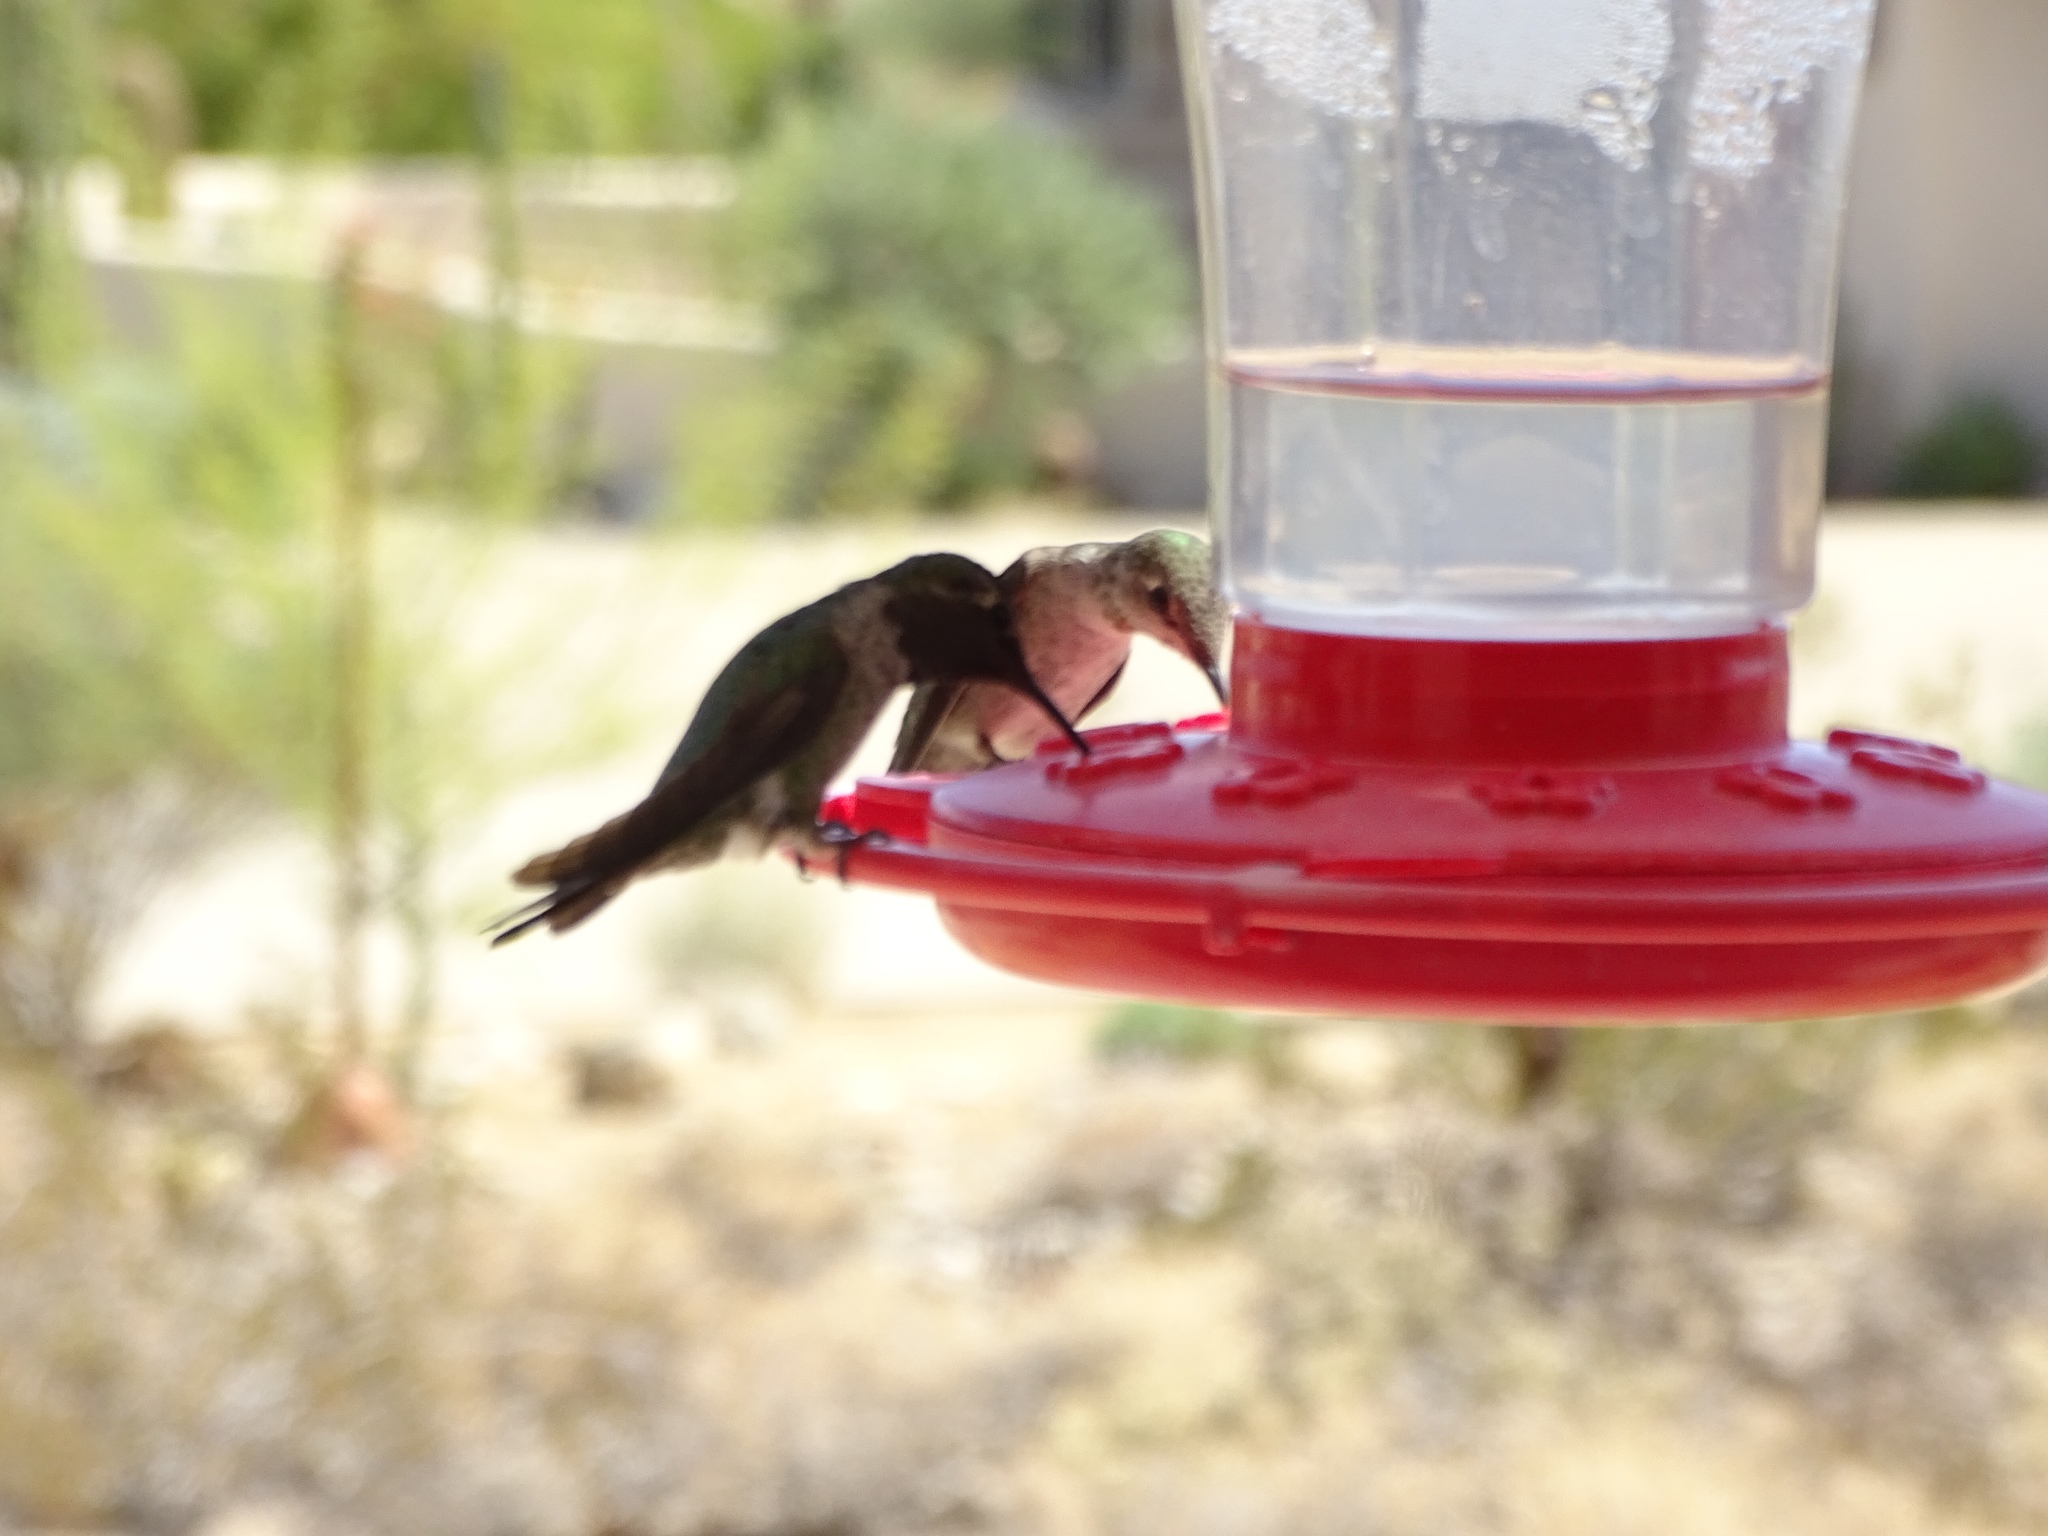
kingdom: Animalia
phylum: Chordata
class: Aves
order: Apodiformes
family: Trochilidae
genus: Calypte
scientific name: Calypte anna
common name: Anna's hummingbird
